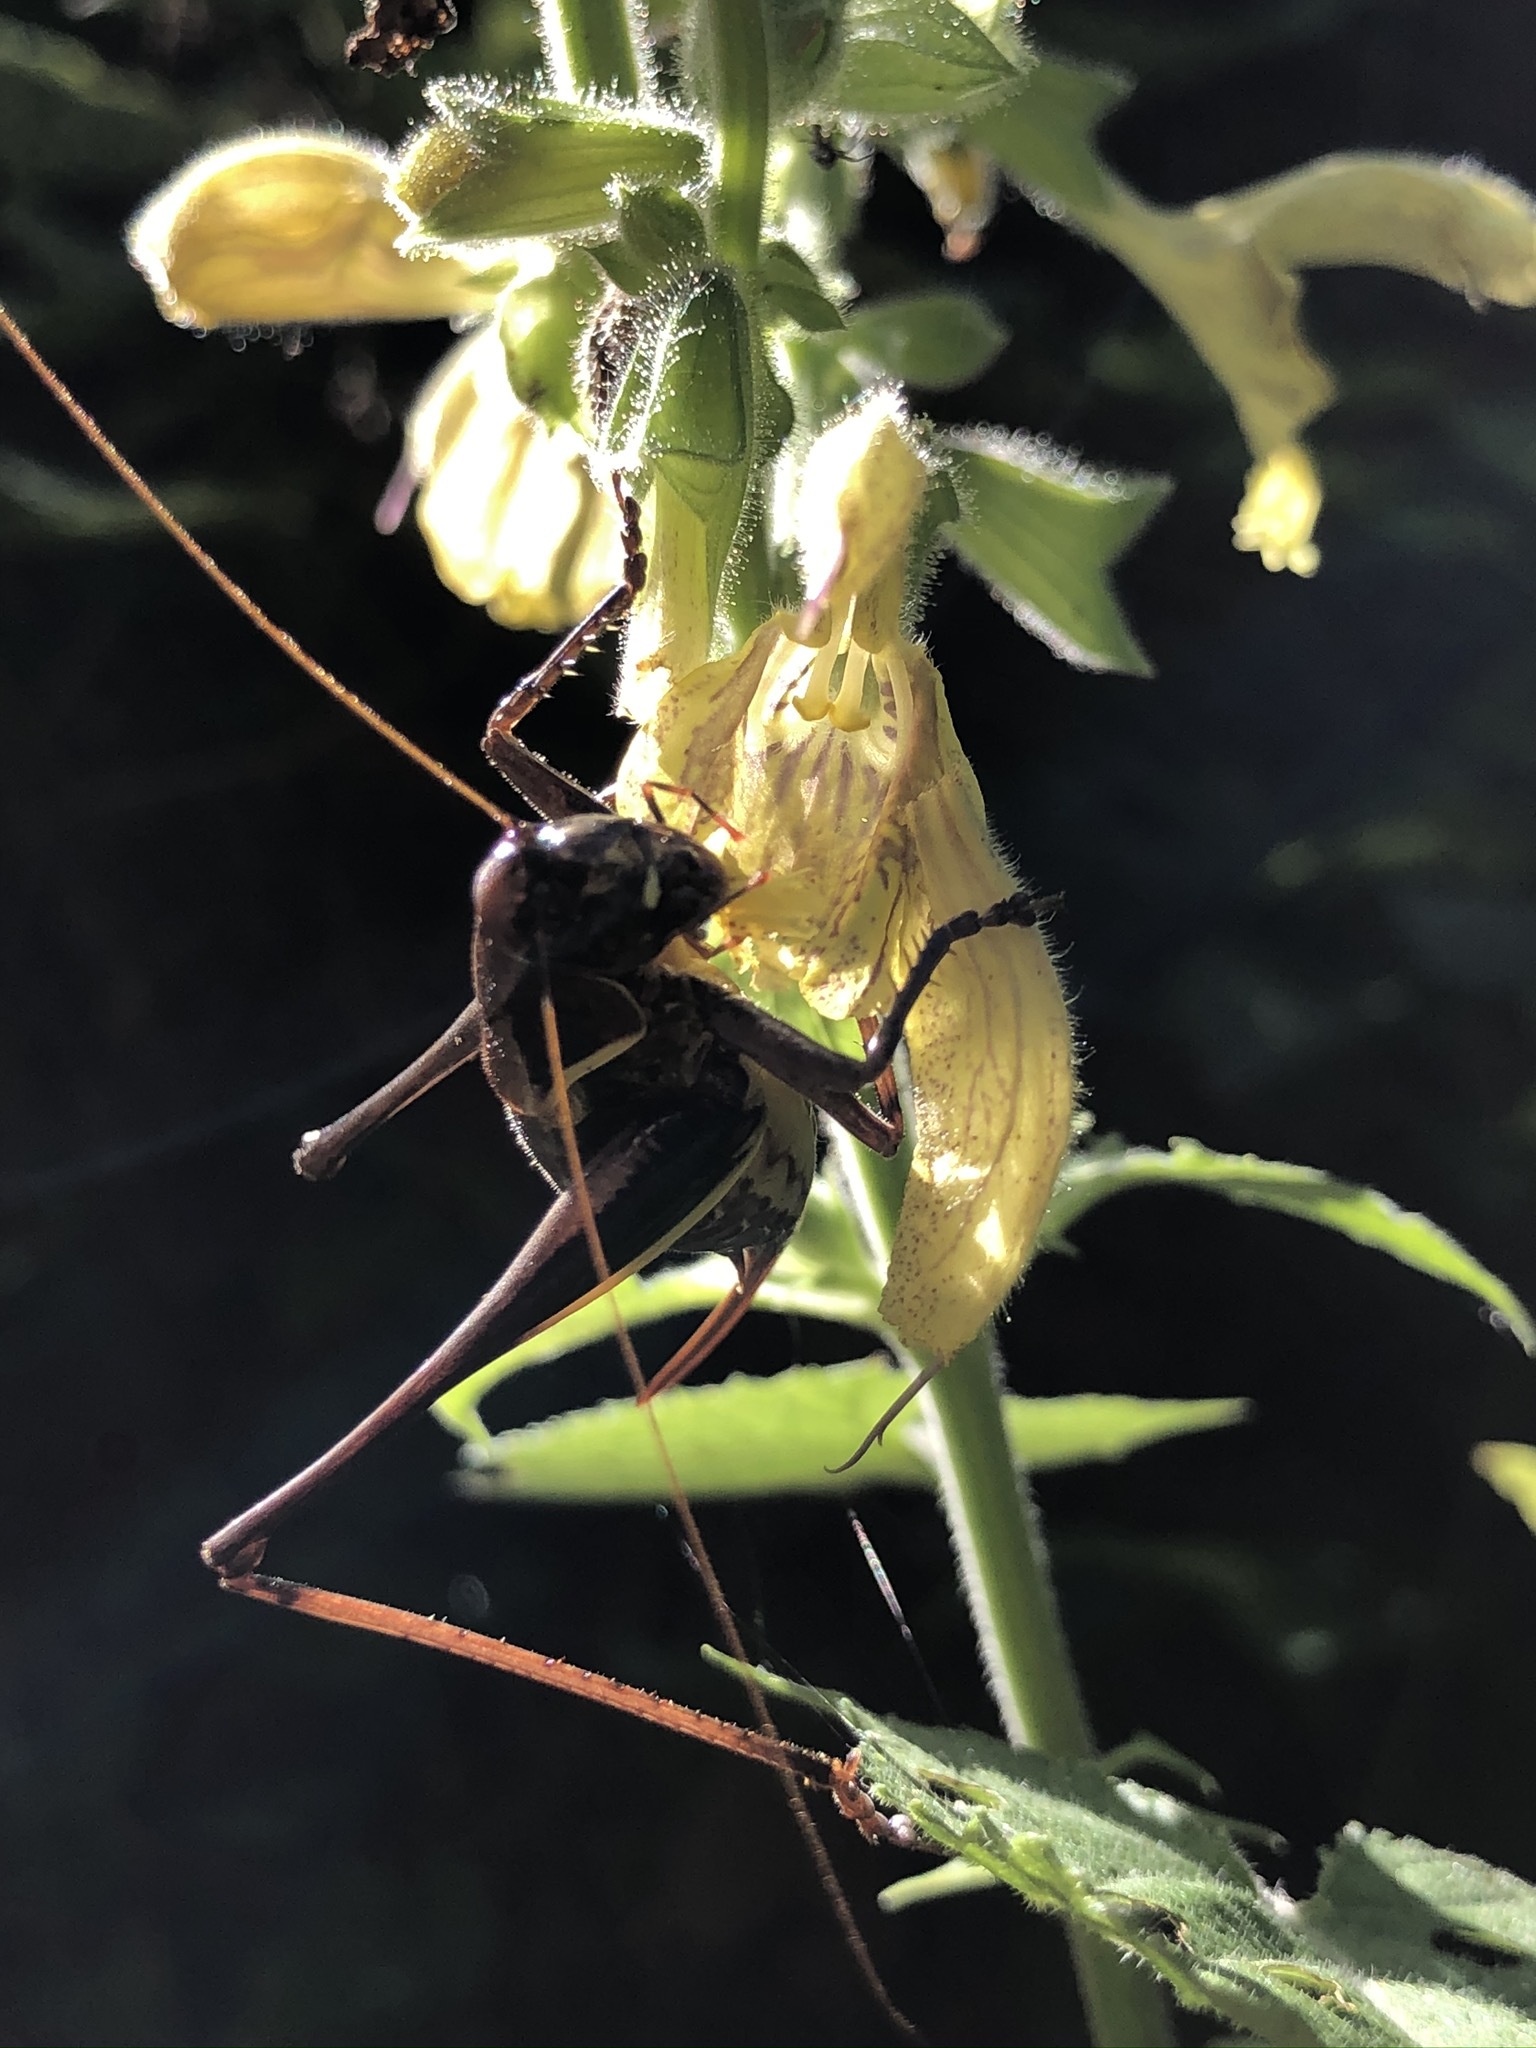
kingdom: Animalia
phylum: Arthropoda
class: Insecta
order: Orthoptera
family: Tettigoniidae
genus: Pholidoptera
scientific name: Pholidoptera aptera
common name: Alpine dark bush-cricket
